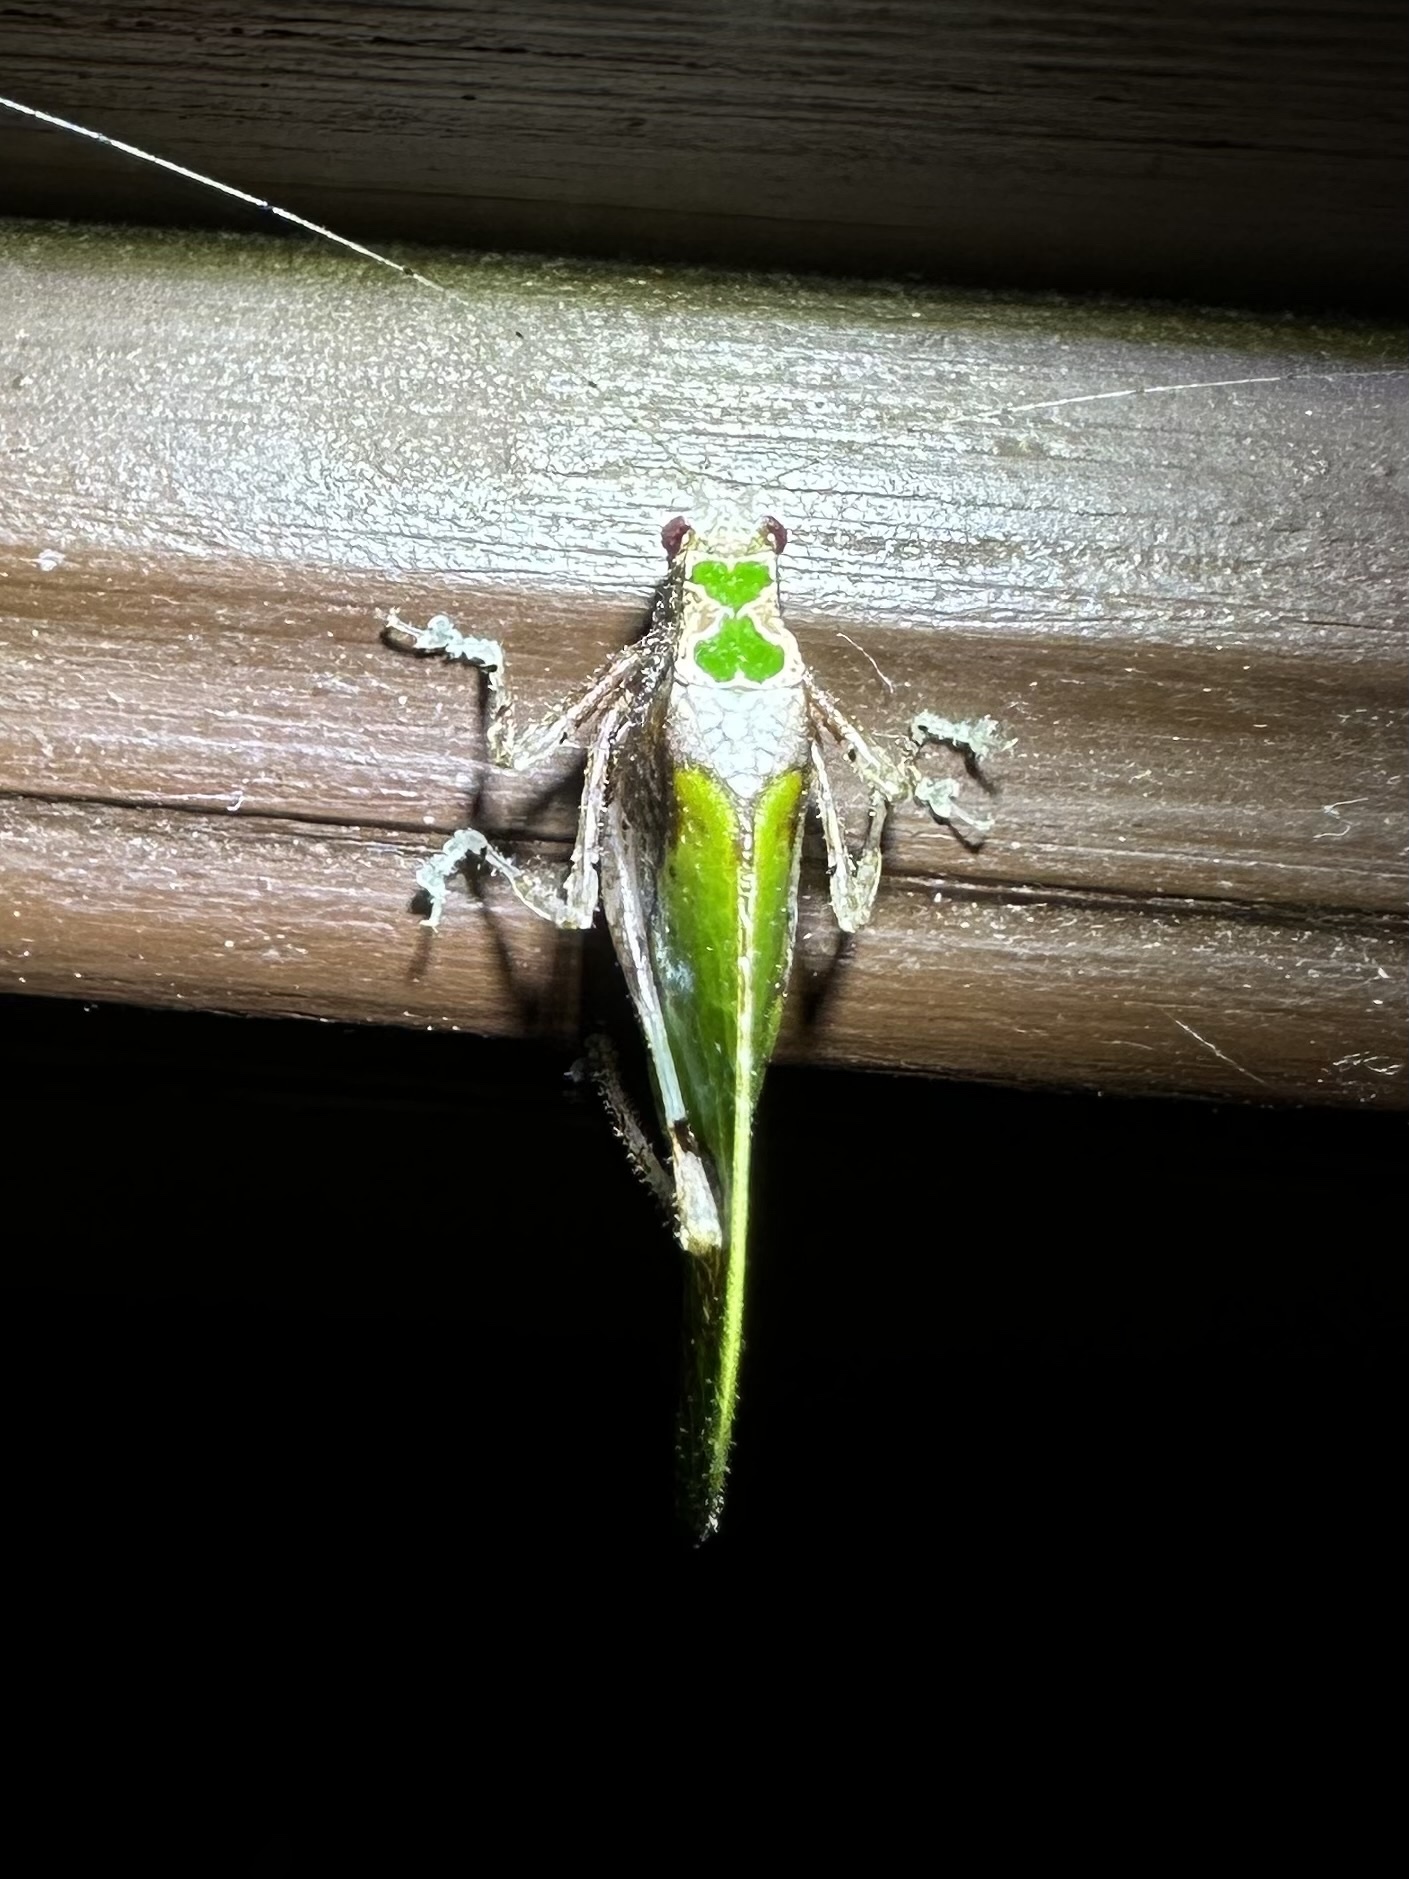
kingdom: Animalia
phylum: Arthropoda
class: Insecta
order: Orthoptera
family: Tettigoniidae
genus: Pycnopalpa
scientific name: Pycnopalpa bicordata
